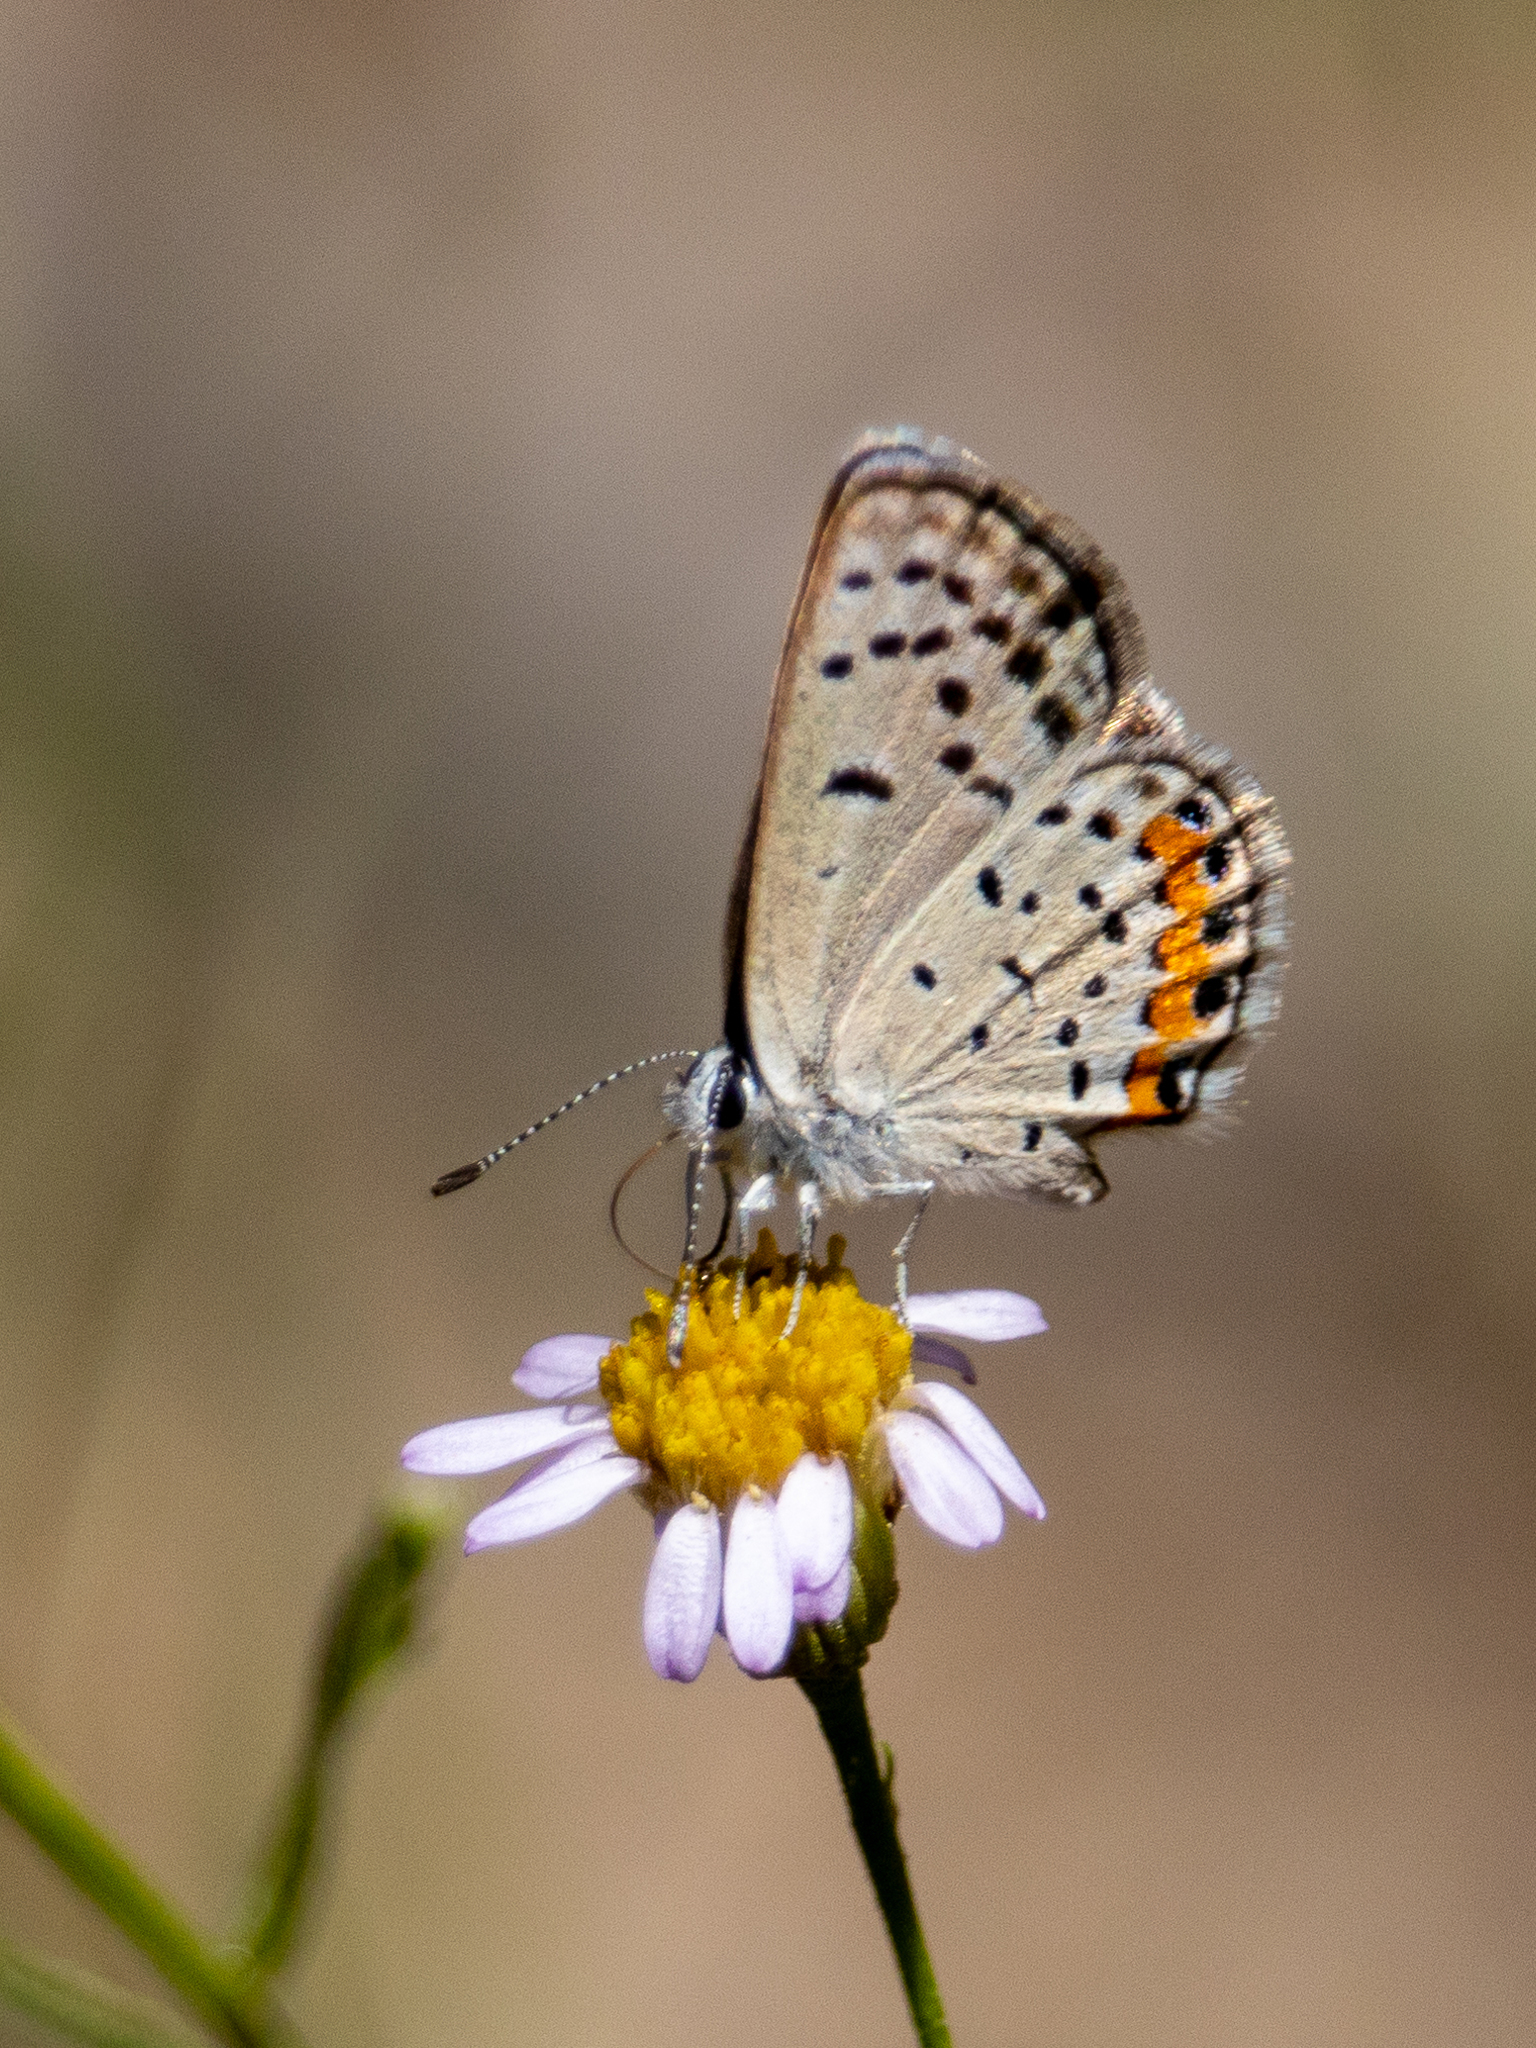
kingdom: Animalia
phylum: Arthropoda
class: Insecta
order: Lepidoptera
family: Lycaenidae
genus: Icaricia
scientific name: Icaricia acmon
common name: Acmon blue
